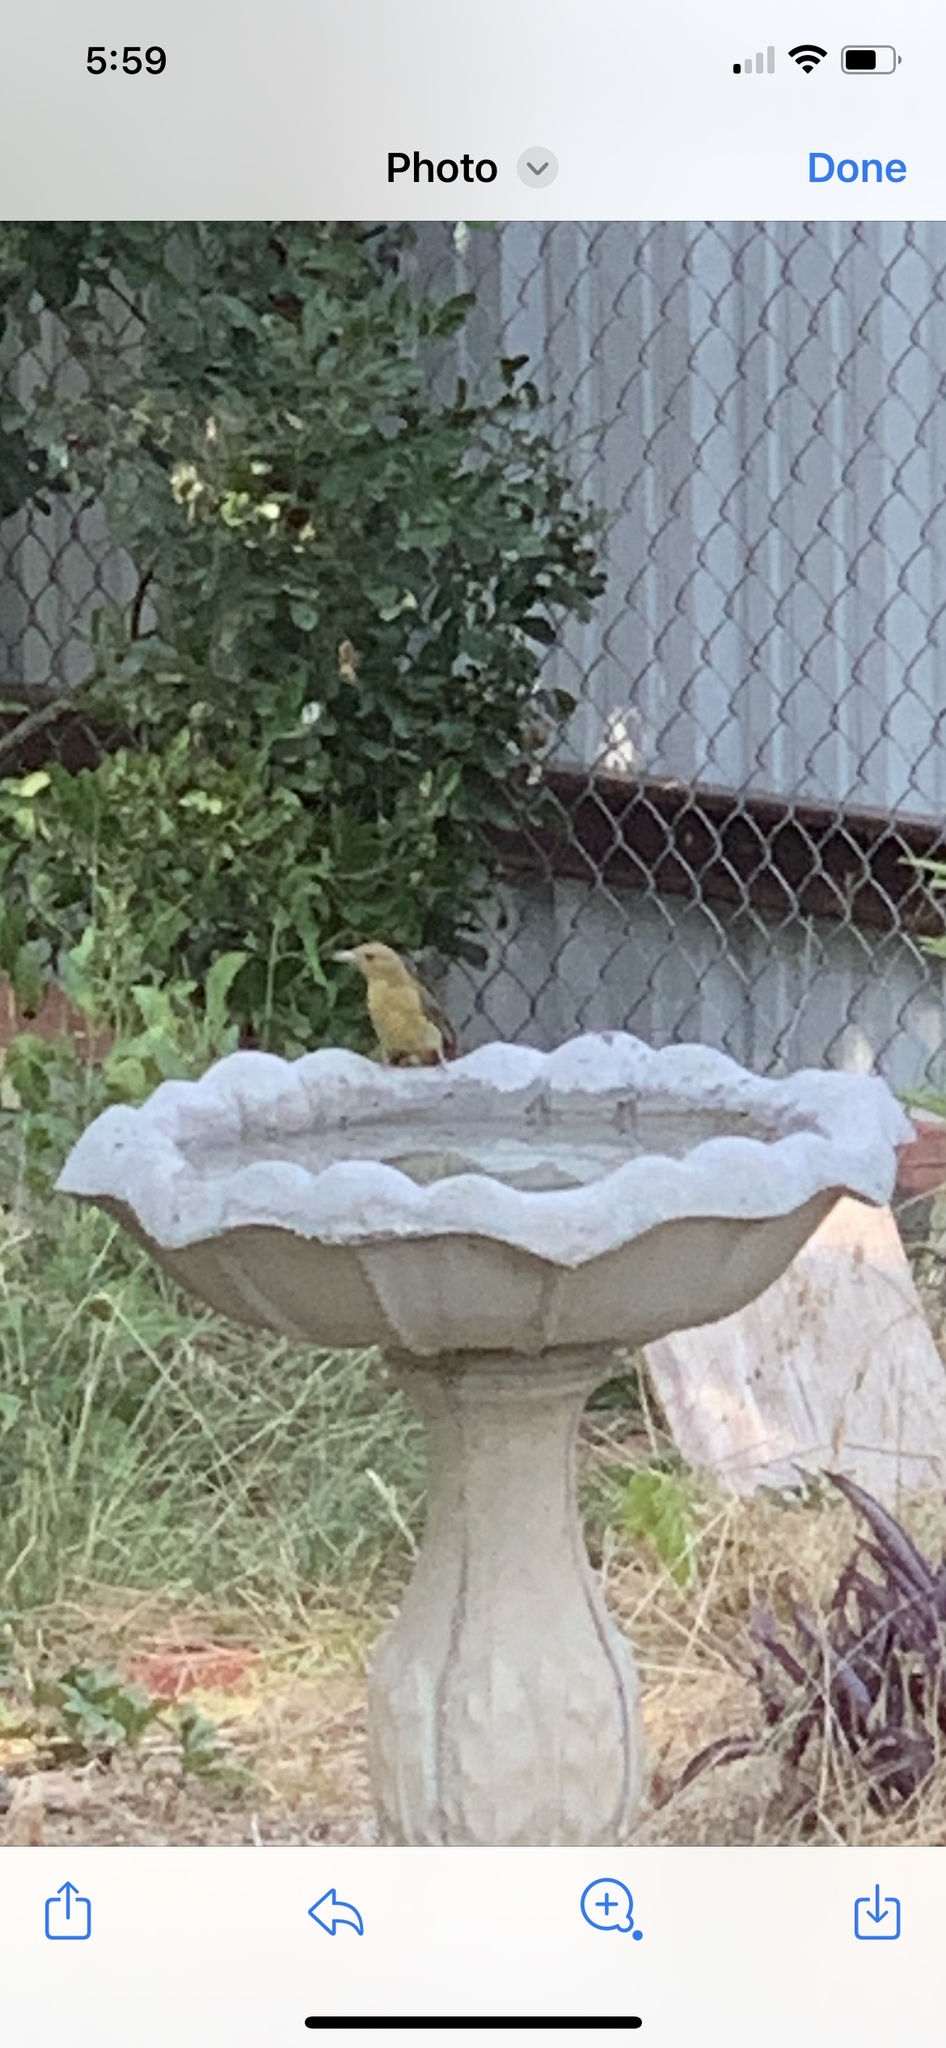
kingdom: Animalia
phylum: Chordata
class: Aves
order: Passeriformes
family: Cardinalidae
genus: Piranga
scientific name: Piranga rubra
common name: Summer tanager
